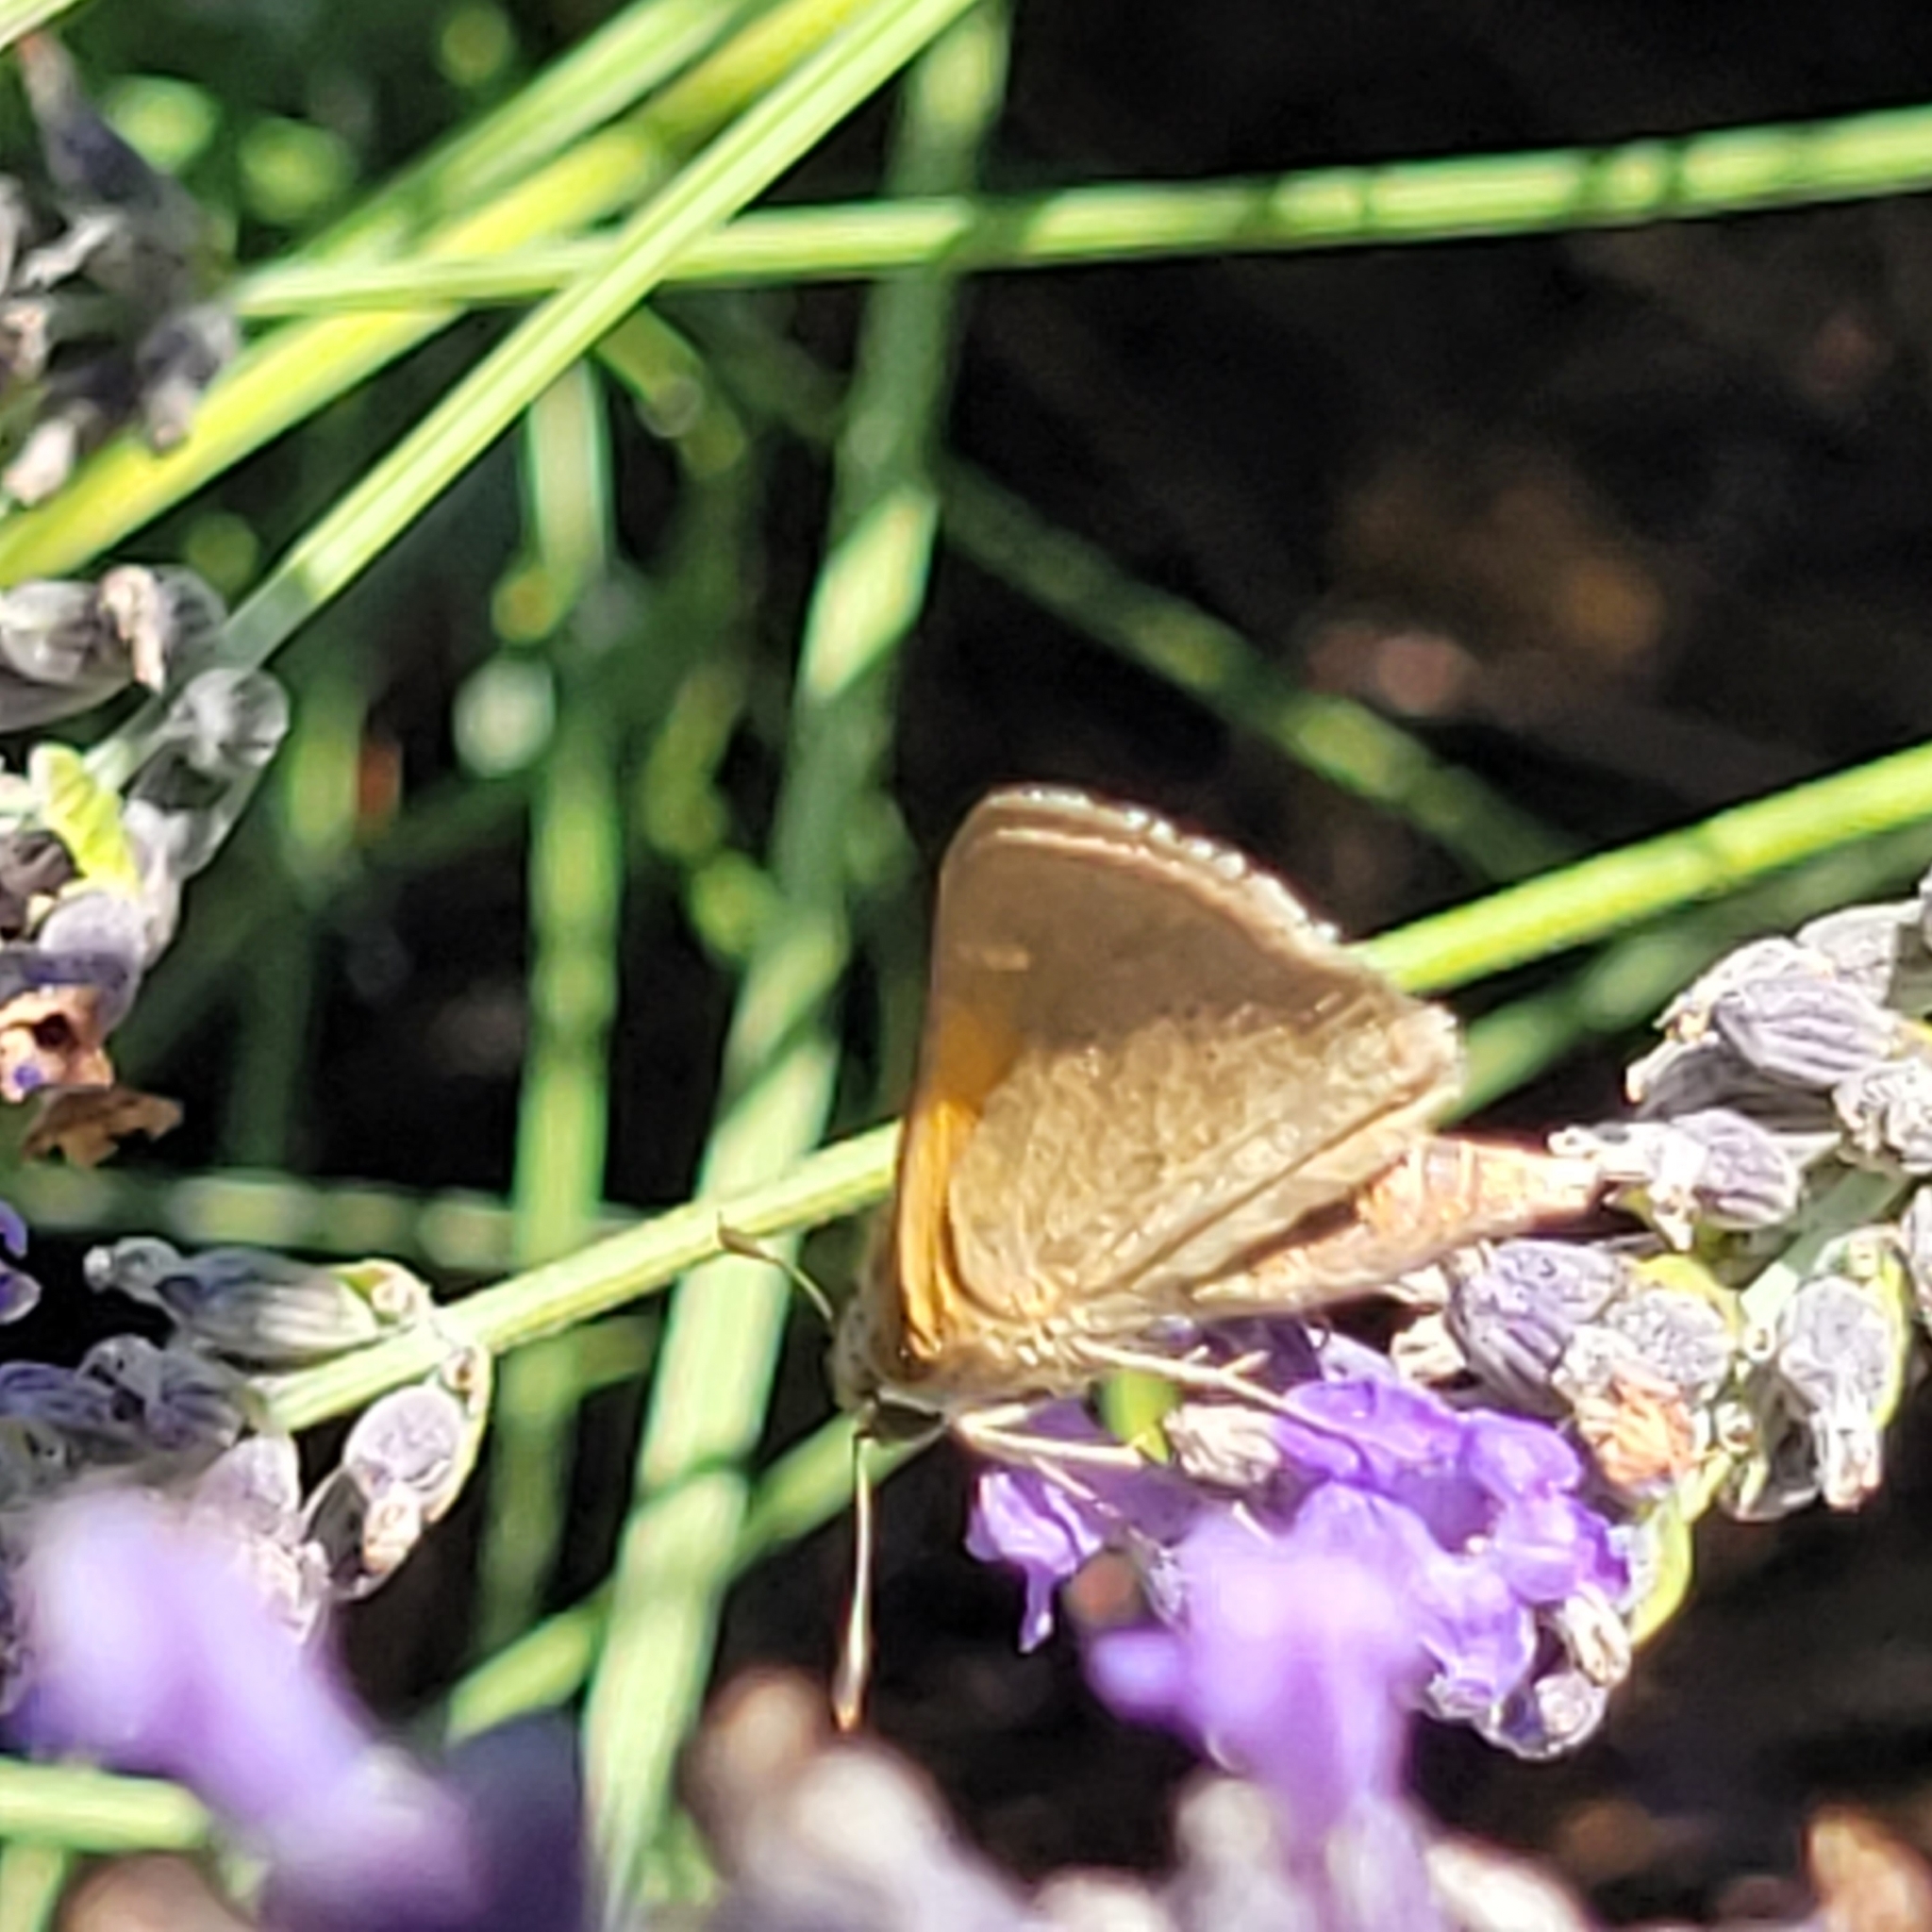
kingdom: Animalia
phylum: Arthropoda
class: Insecta
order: Lepidoptera
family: Hesperiidae
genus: Polites
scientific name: Polites themistocles
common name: Tawny-edged skipper
